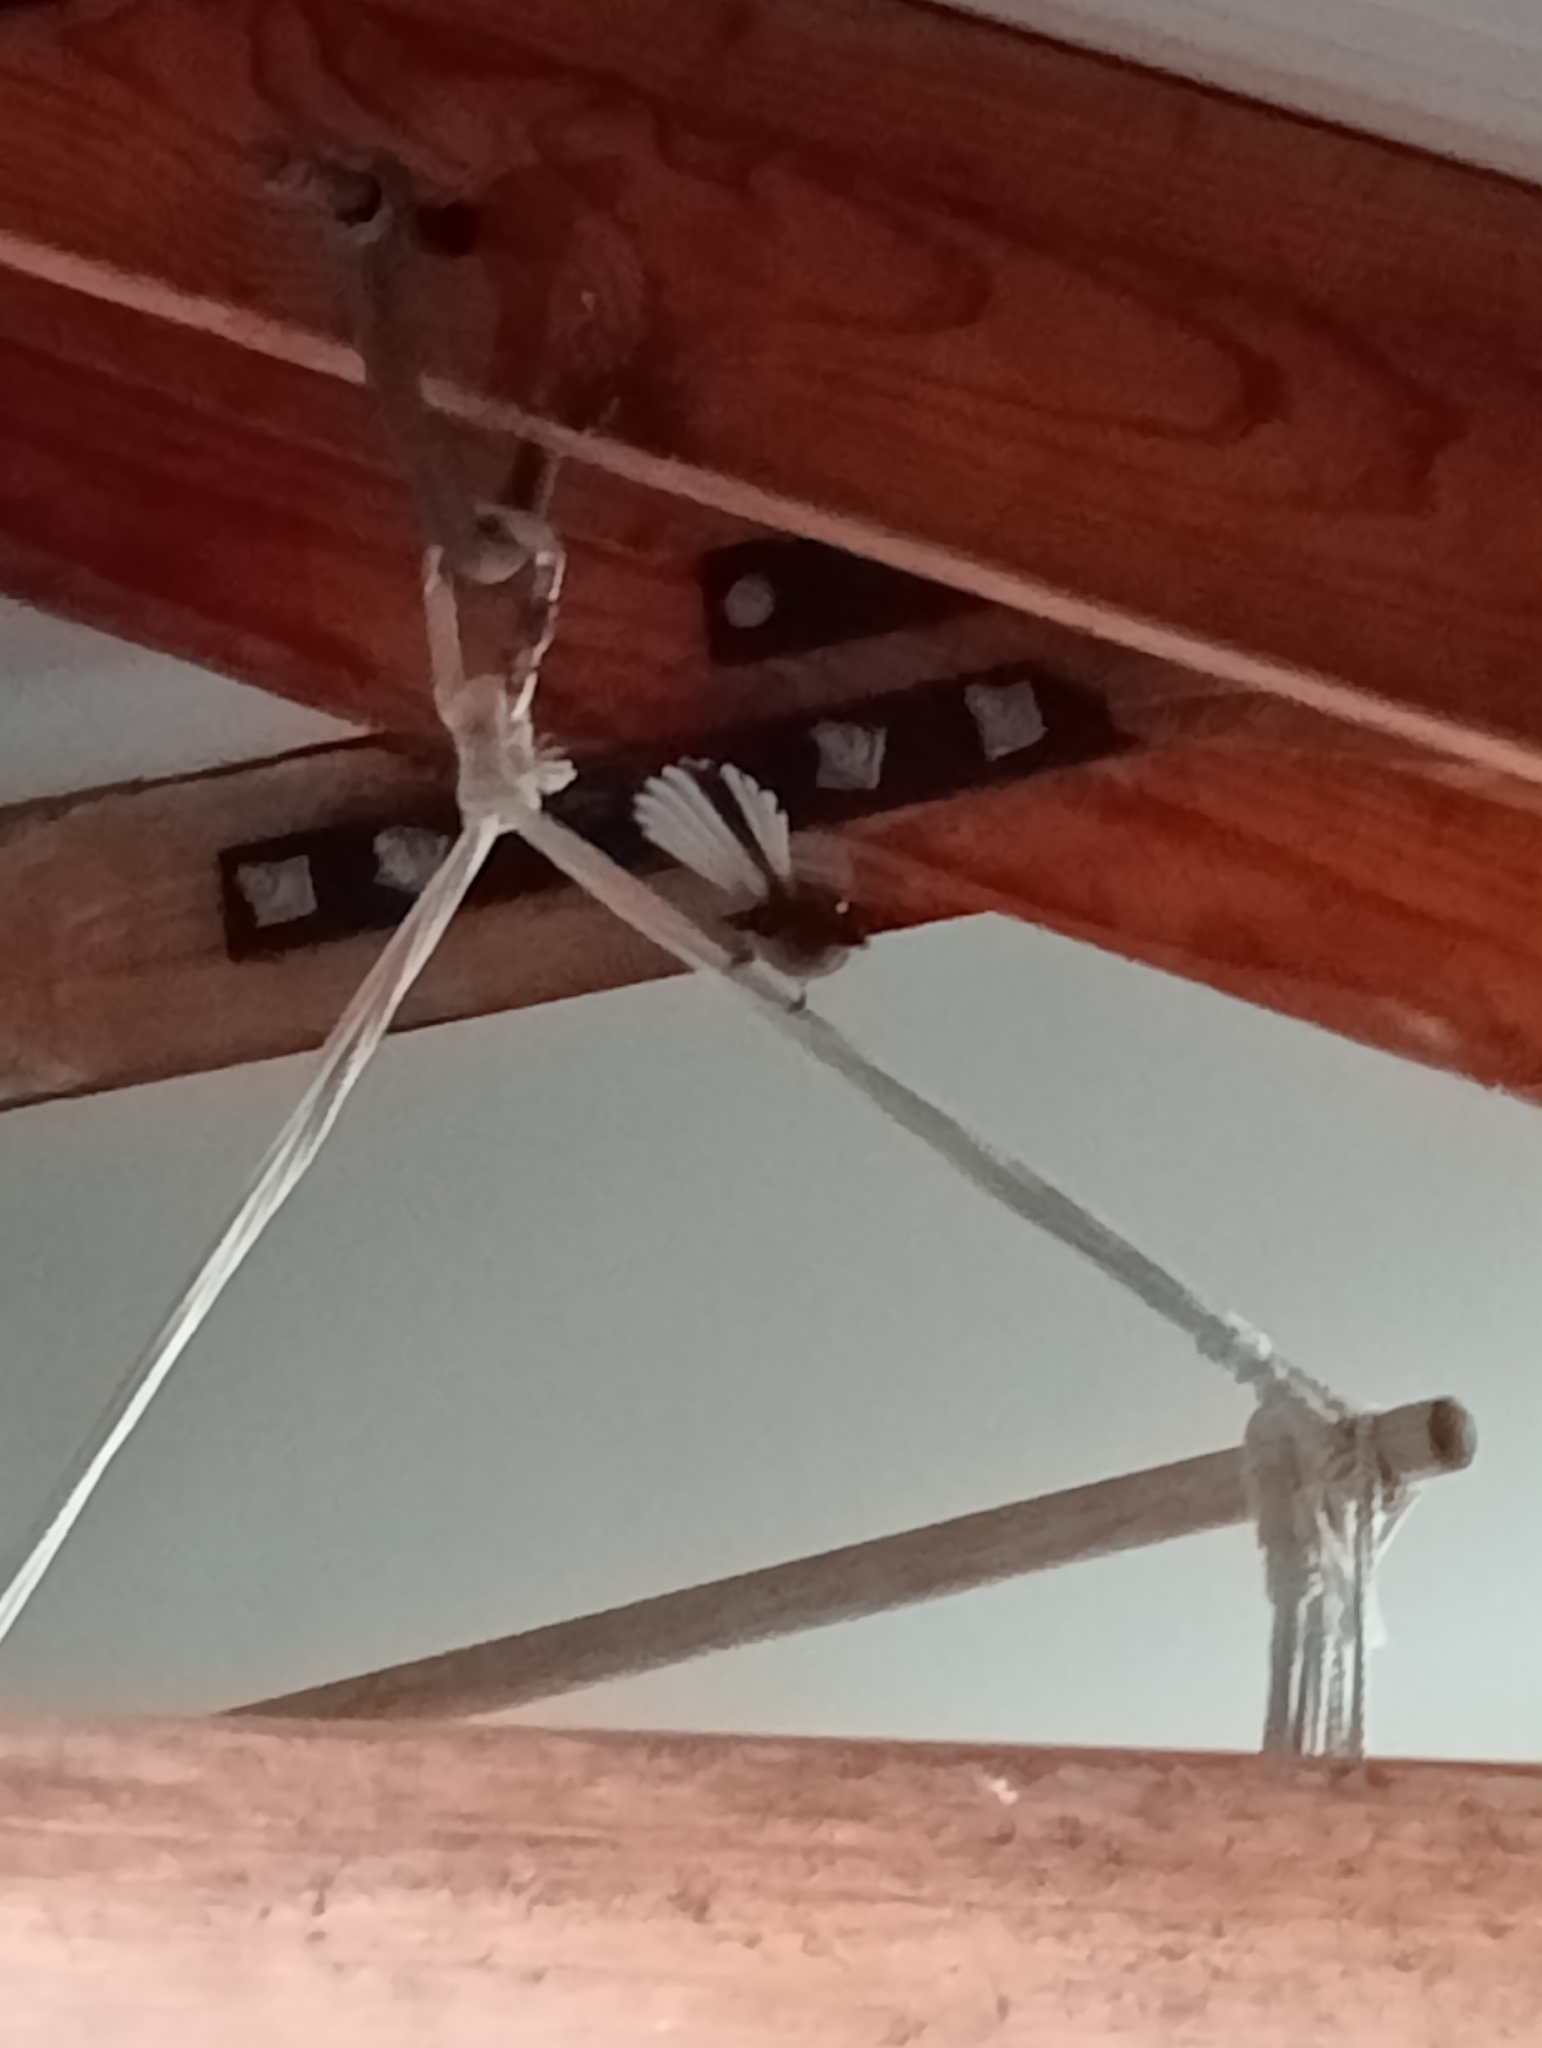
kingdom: Animalia
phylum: Chordata
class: Aves
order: Passeriformes
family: Rhipiduridae
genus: Rhipidura
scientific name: Rhipidura fuliginosa
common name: New zealand fantail
